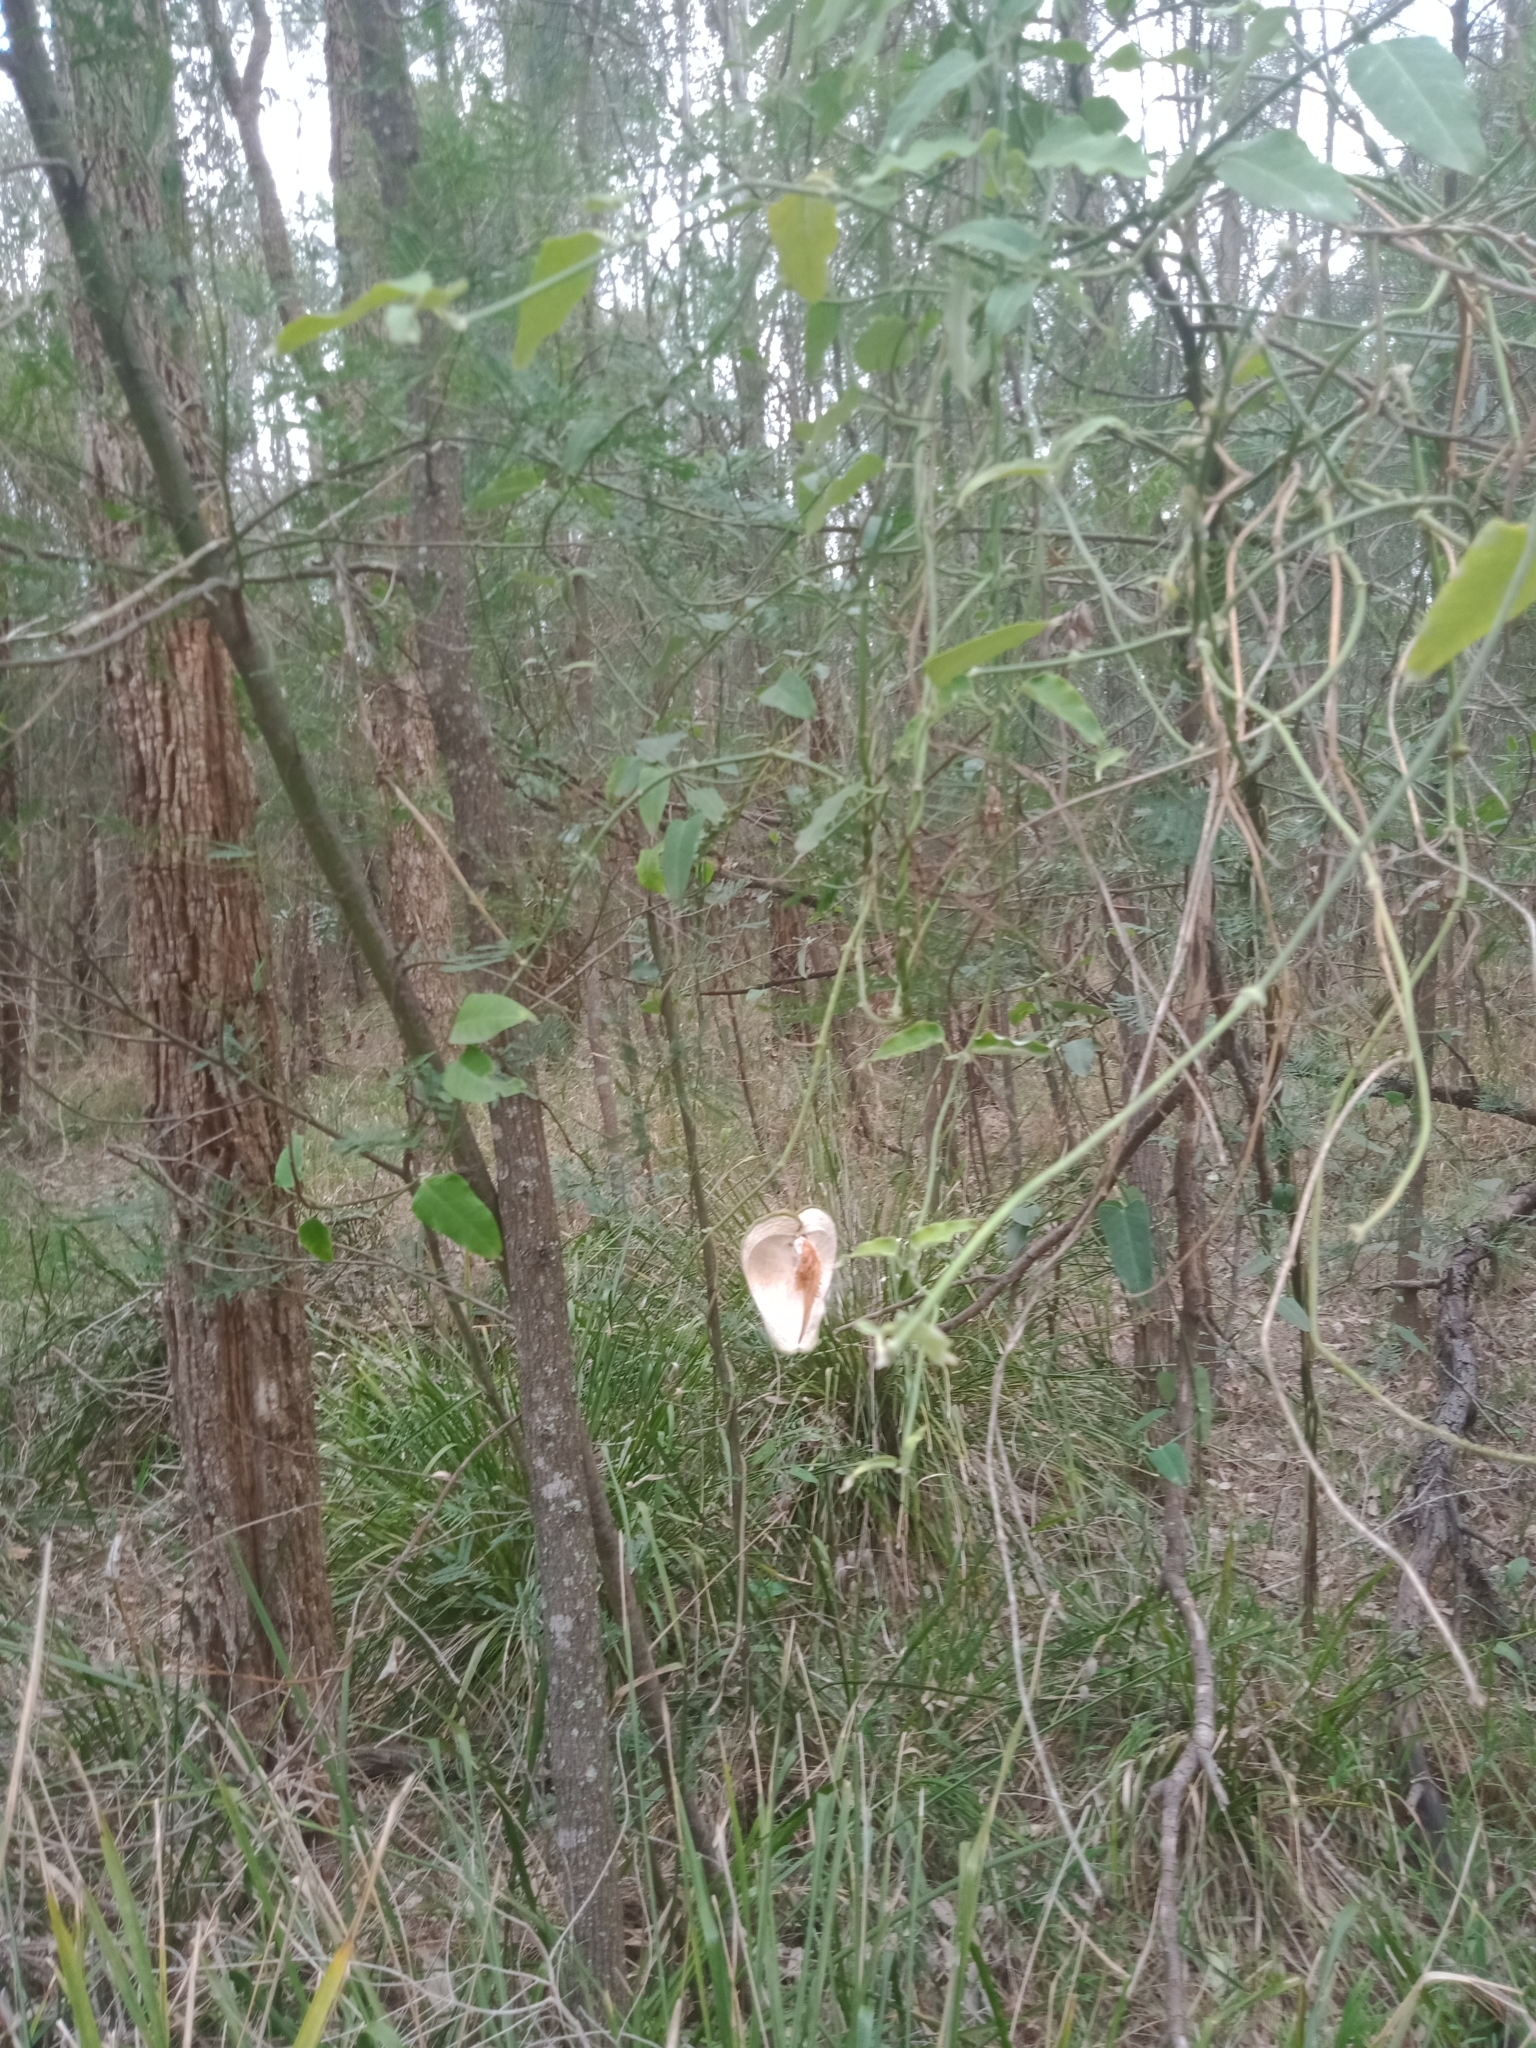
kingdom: Plantae
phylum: Tracheophyta
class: Magnoliopsida
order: Gentianales
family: Apocynaceae
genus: Araujia
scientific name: Araujia sericifera
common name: White bladderflower
